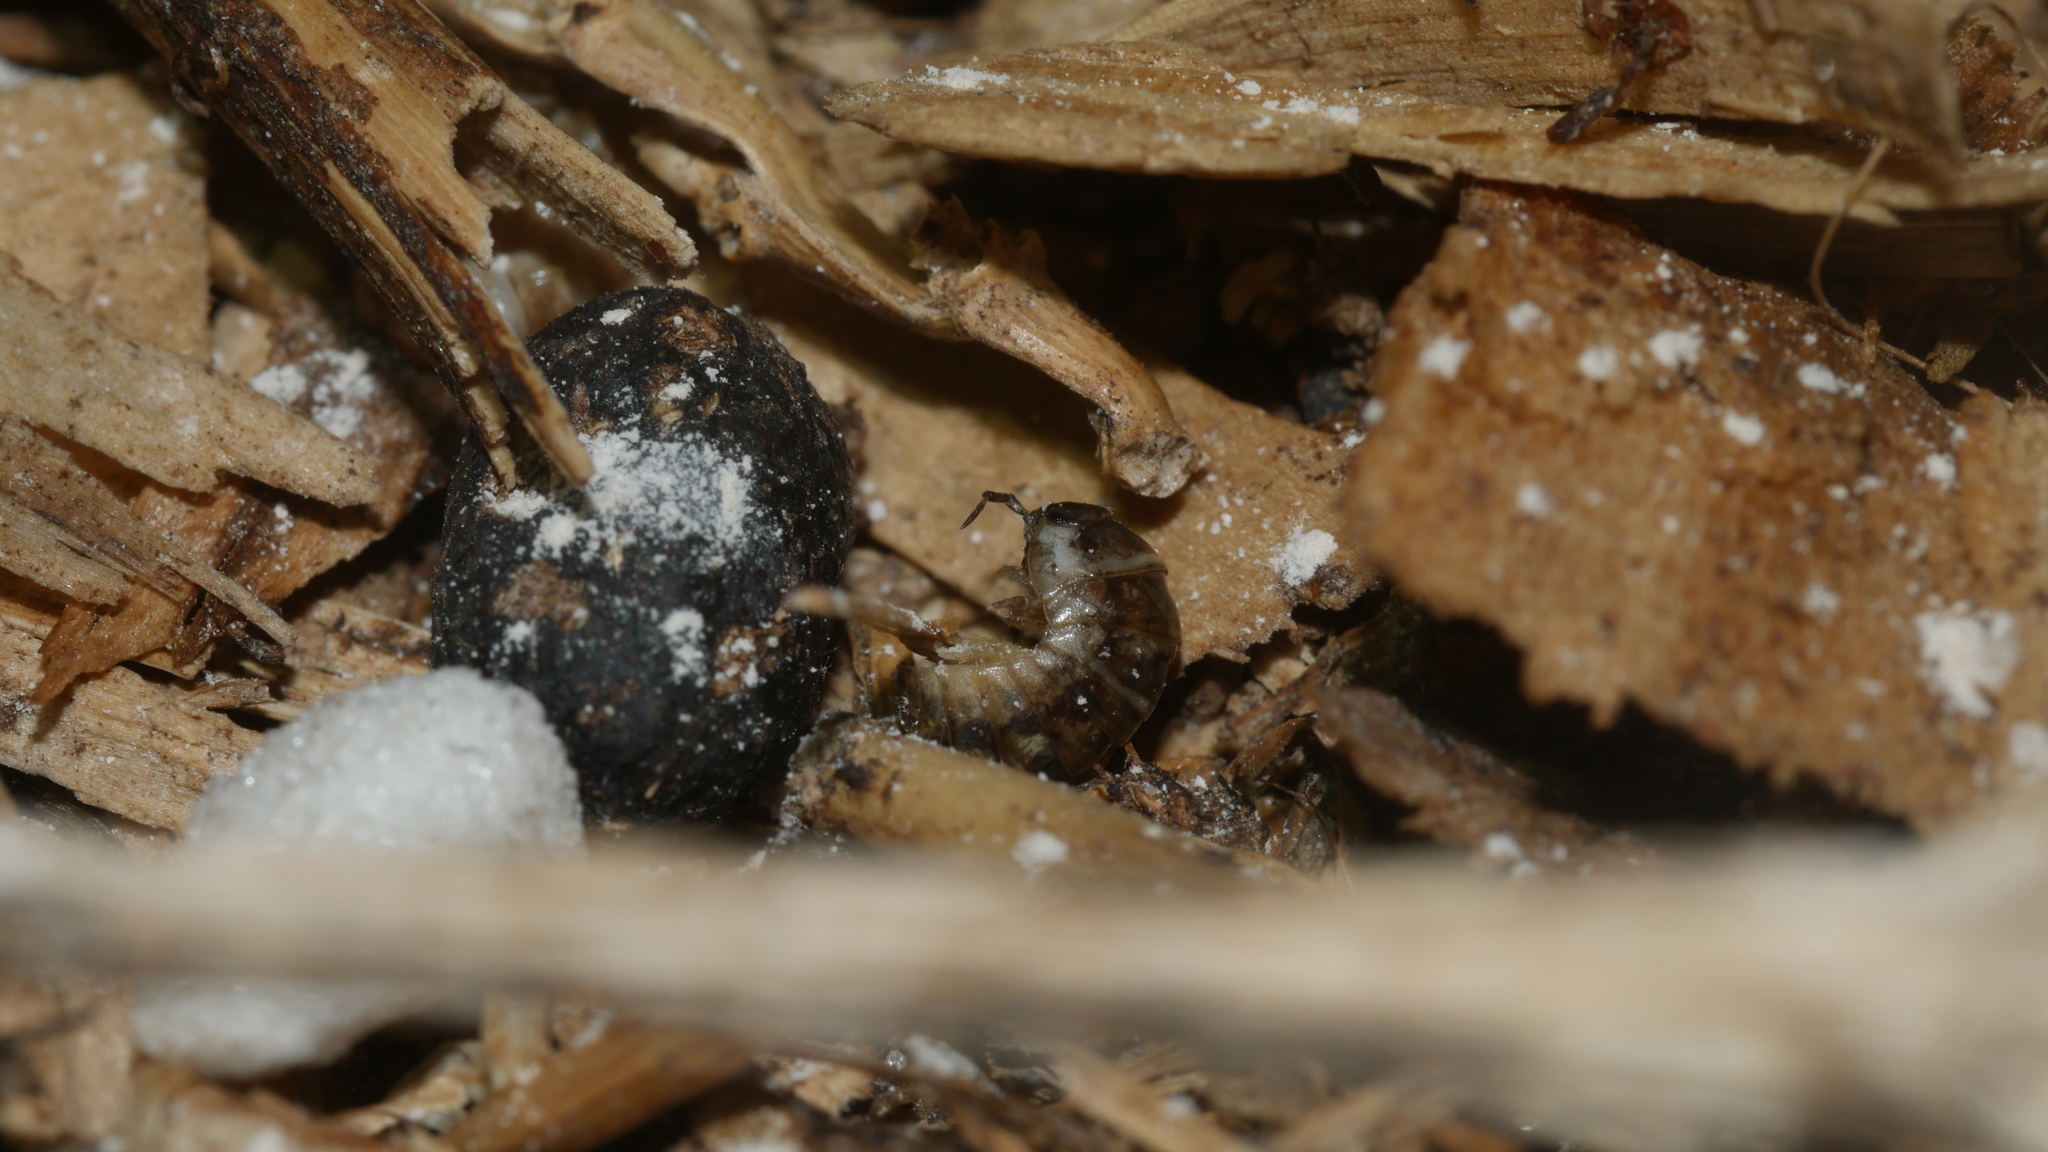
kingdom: Animalia
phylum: Arthropoda
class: Malacostraca
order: Isopoda
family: Armadillidiidae
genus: Armadillidium
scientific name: Armadillidium vulgare
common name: Common pill woodlouse
